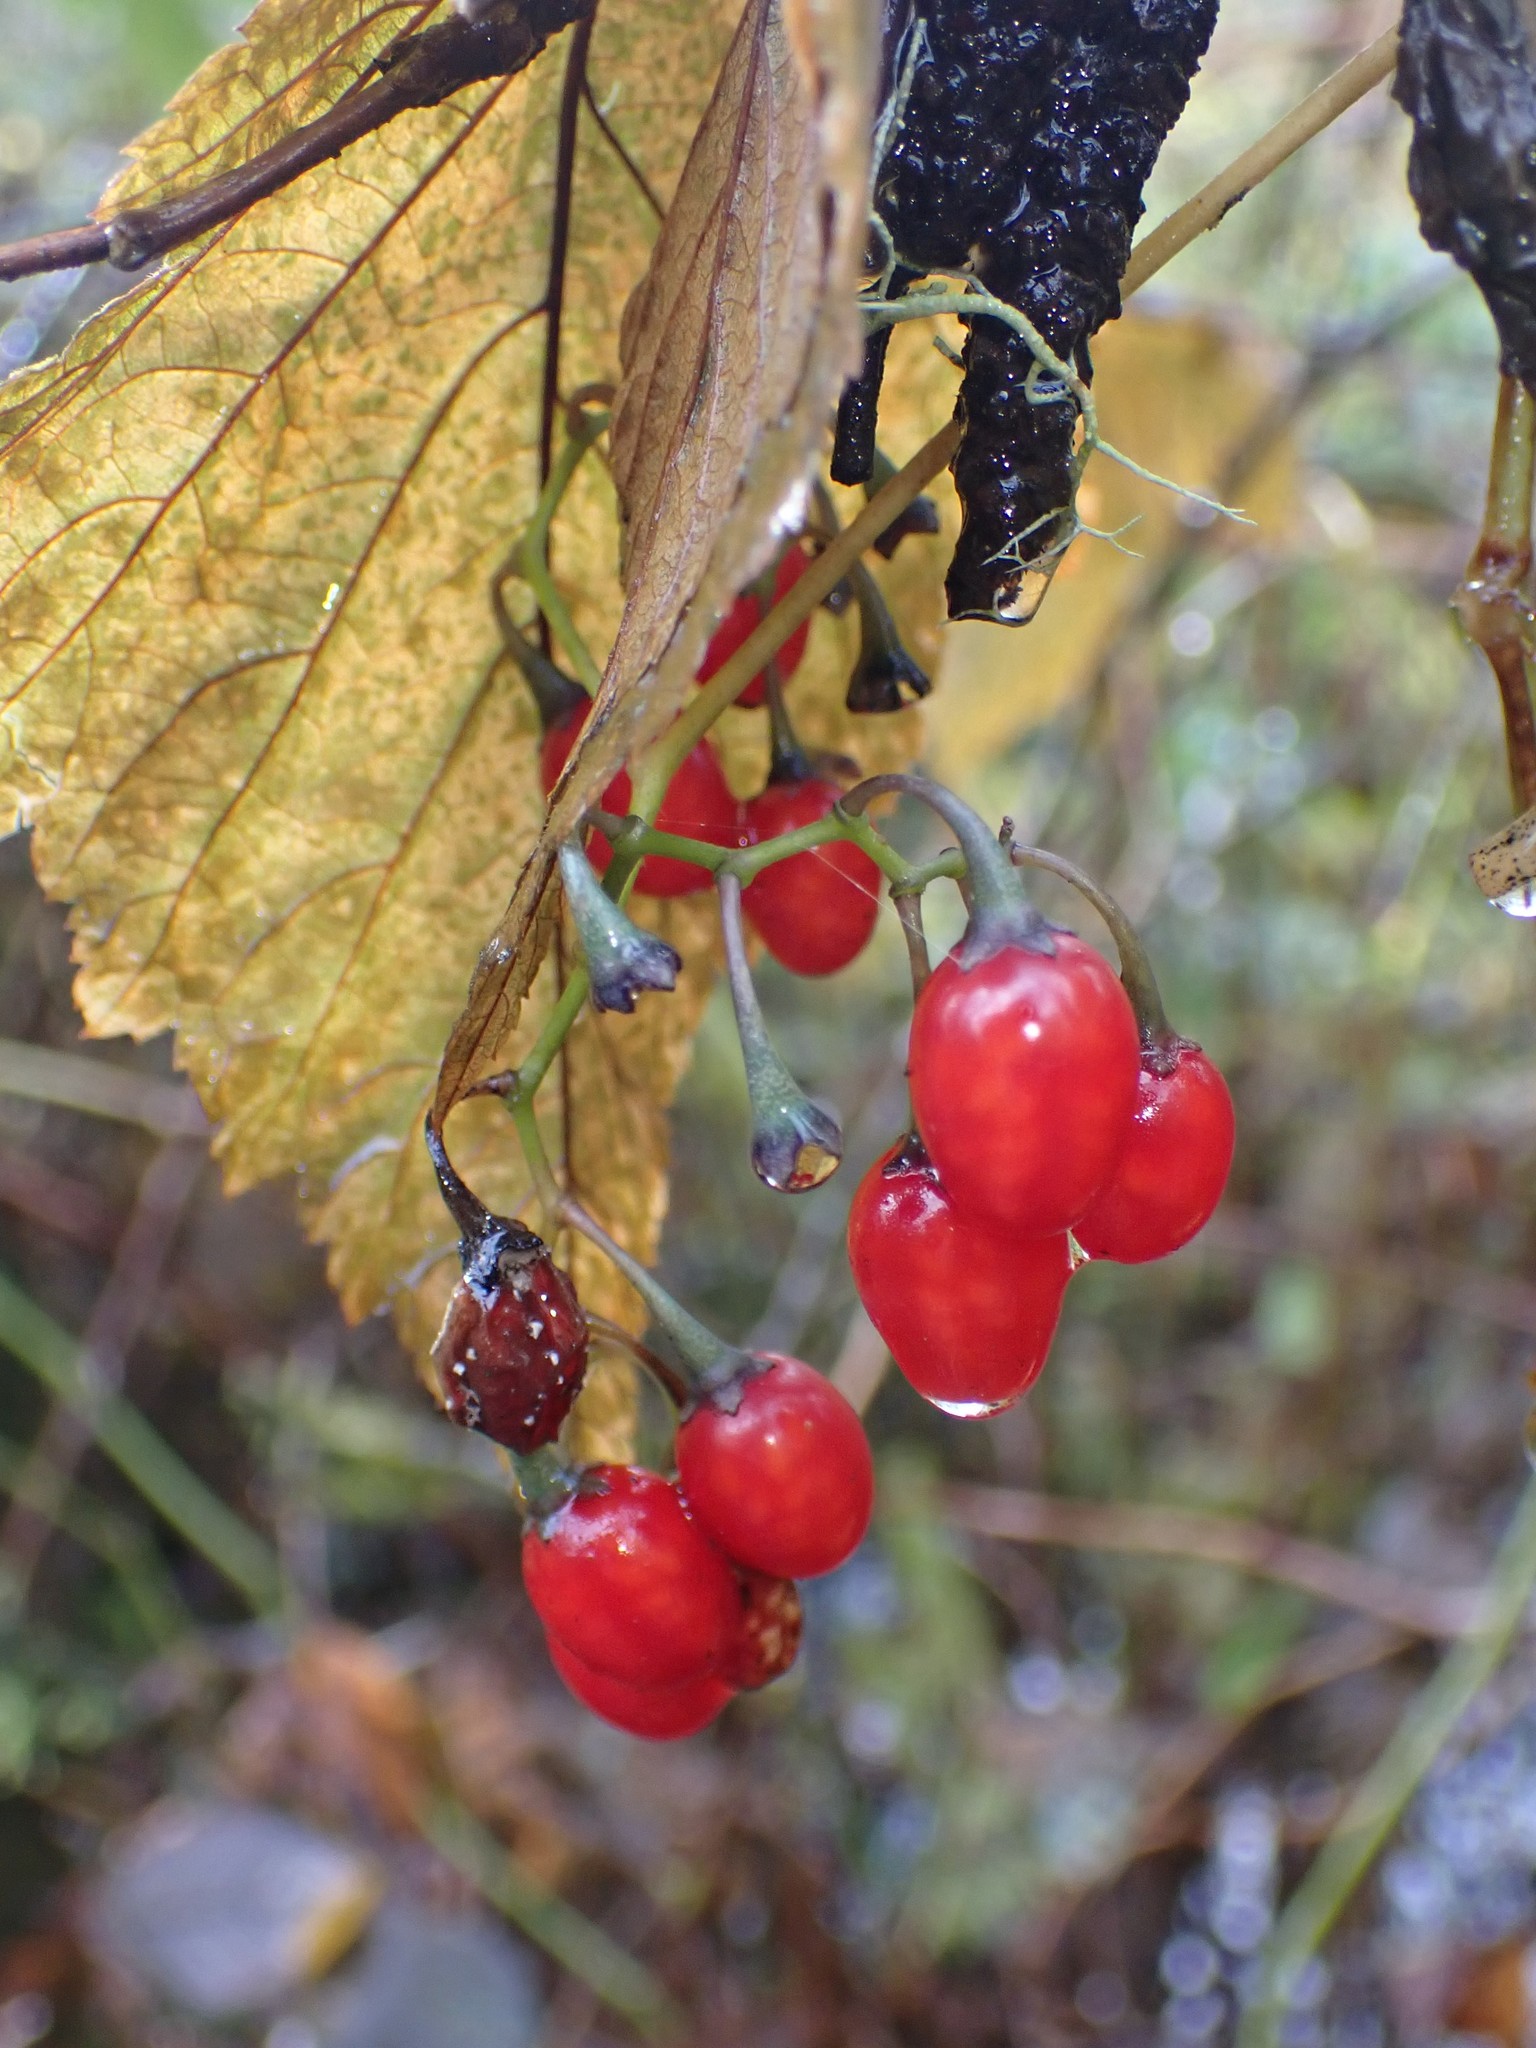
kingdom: Plantae
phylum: Tracheophyta
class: Magnoliopsida
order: Solanales
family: Solanaceae
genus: Solanum
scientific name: Solanum dulcamara
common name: Climbing nightshade
